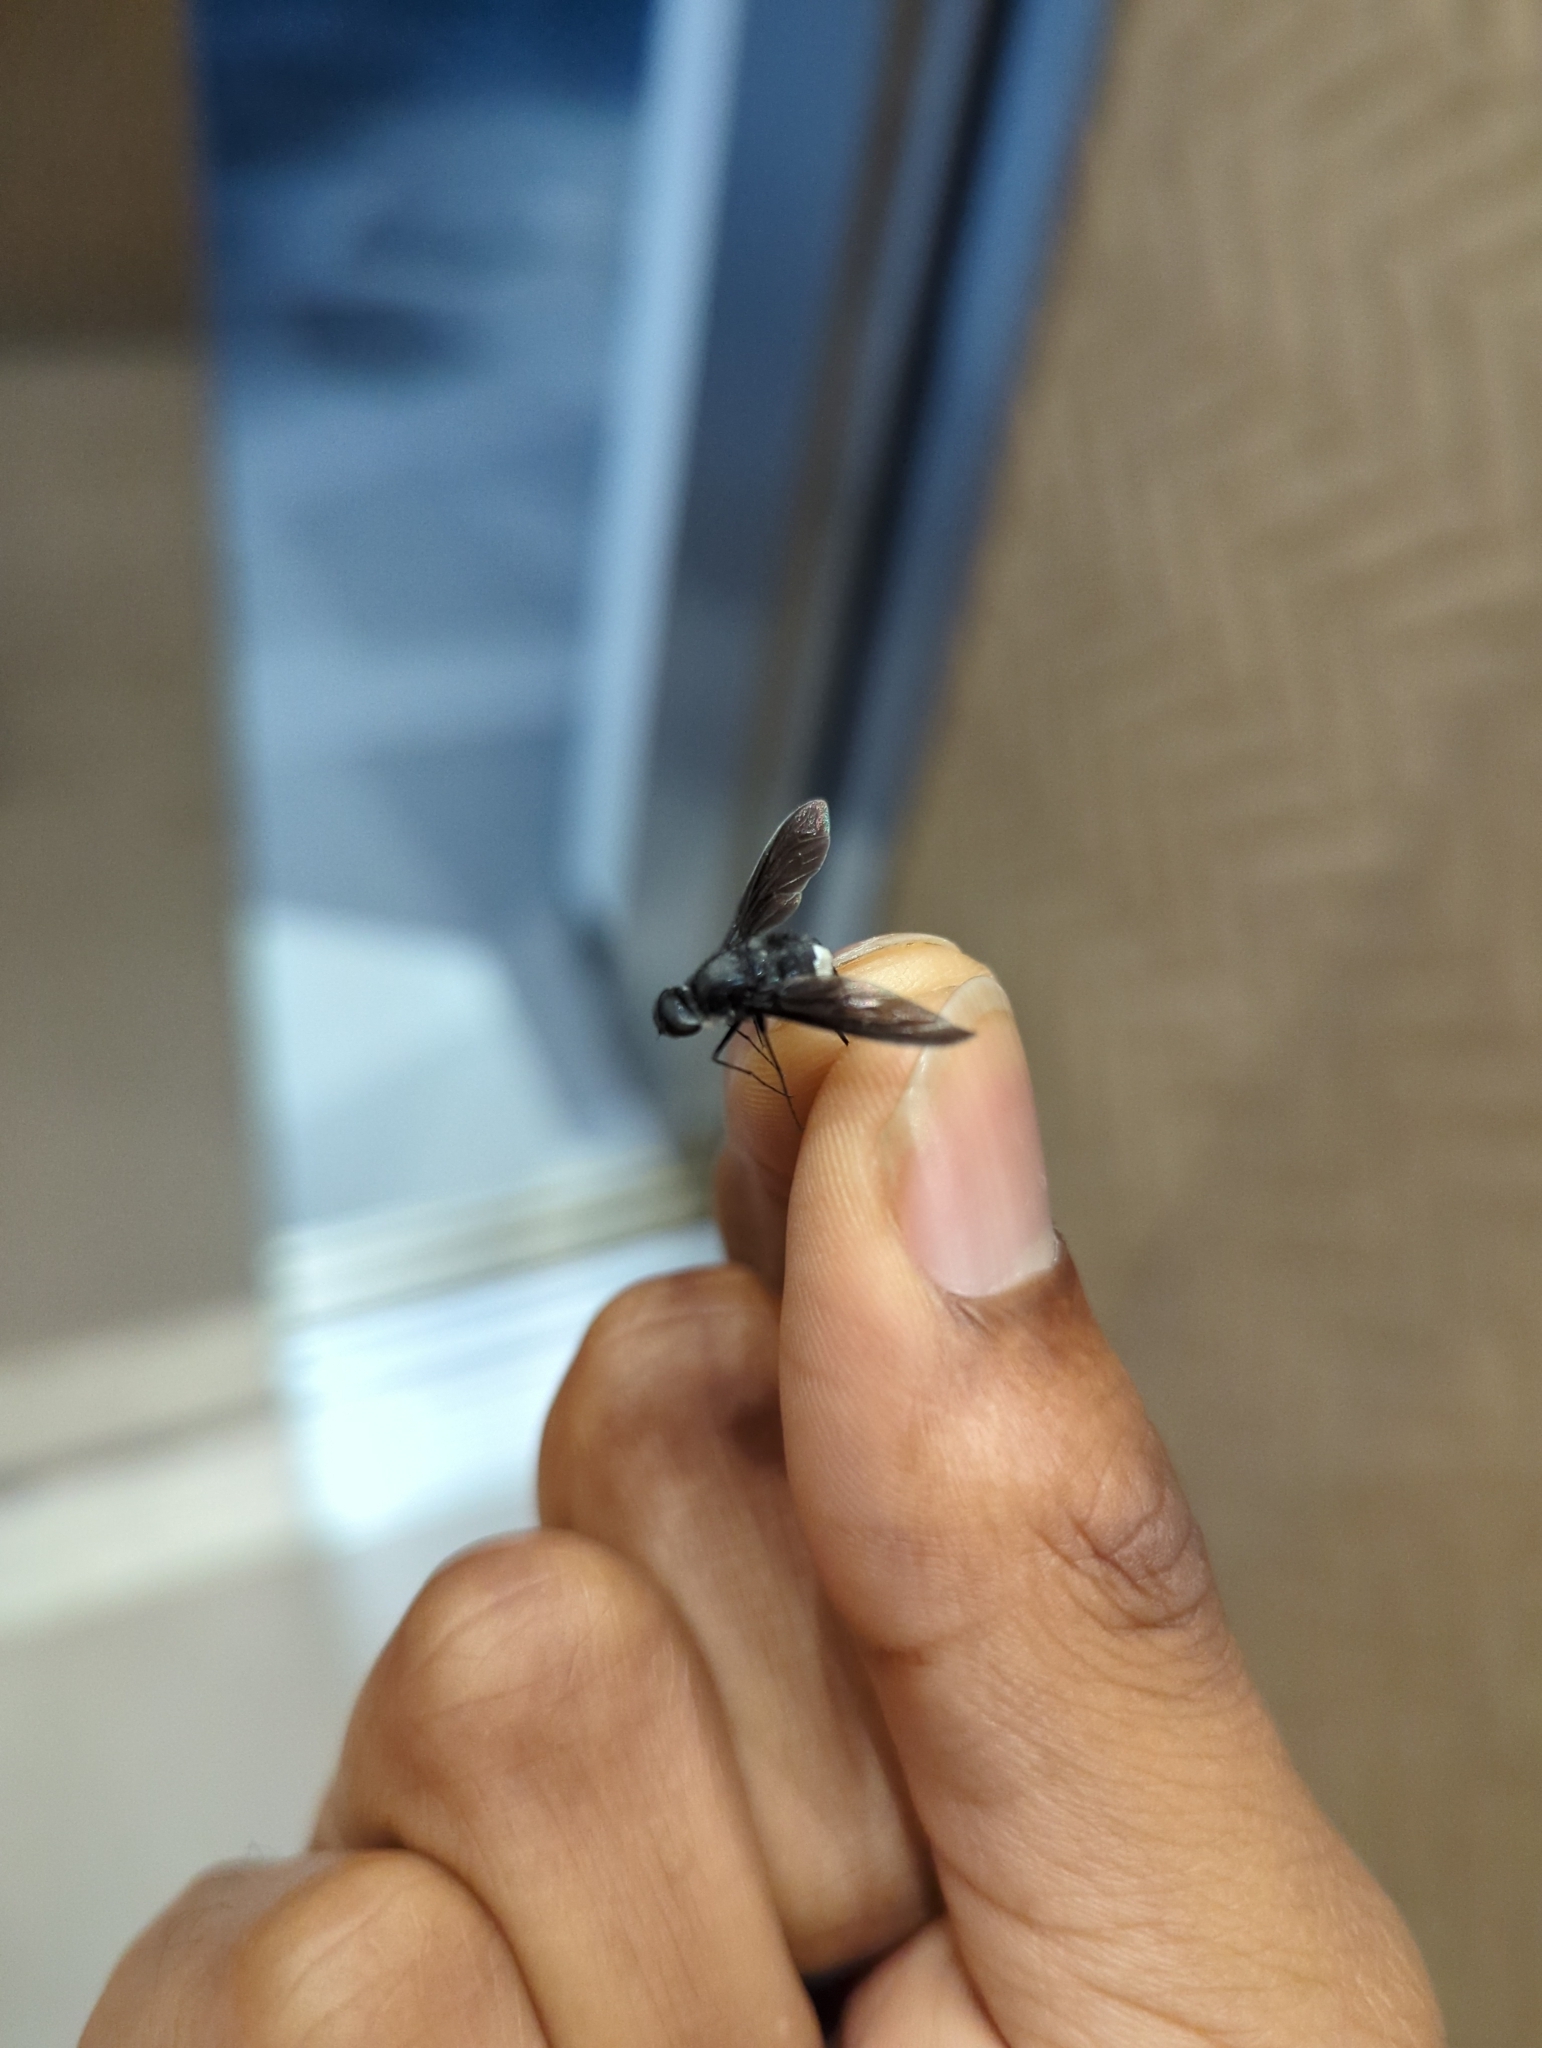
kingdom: Animalia
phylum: Arthropoda
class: Insecta
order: Diptera
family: Bombyliidae
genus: Brachyanax
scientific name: Brachyanax aterrimus
